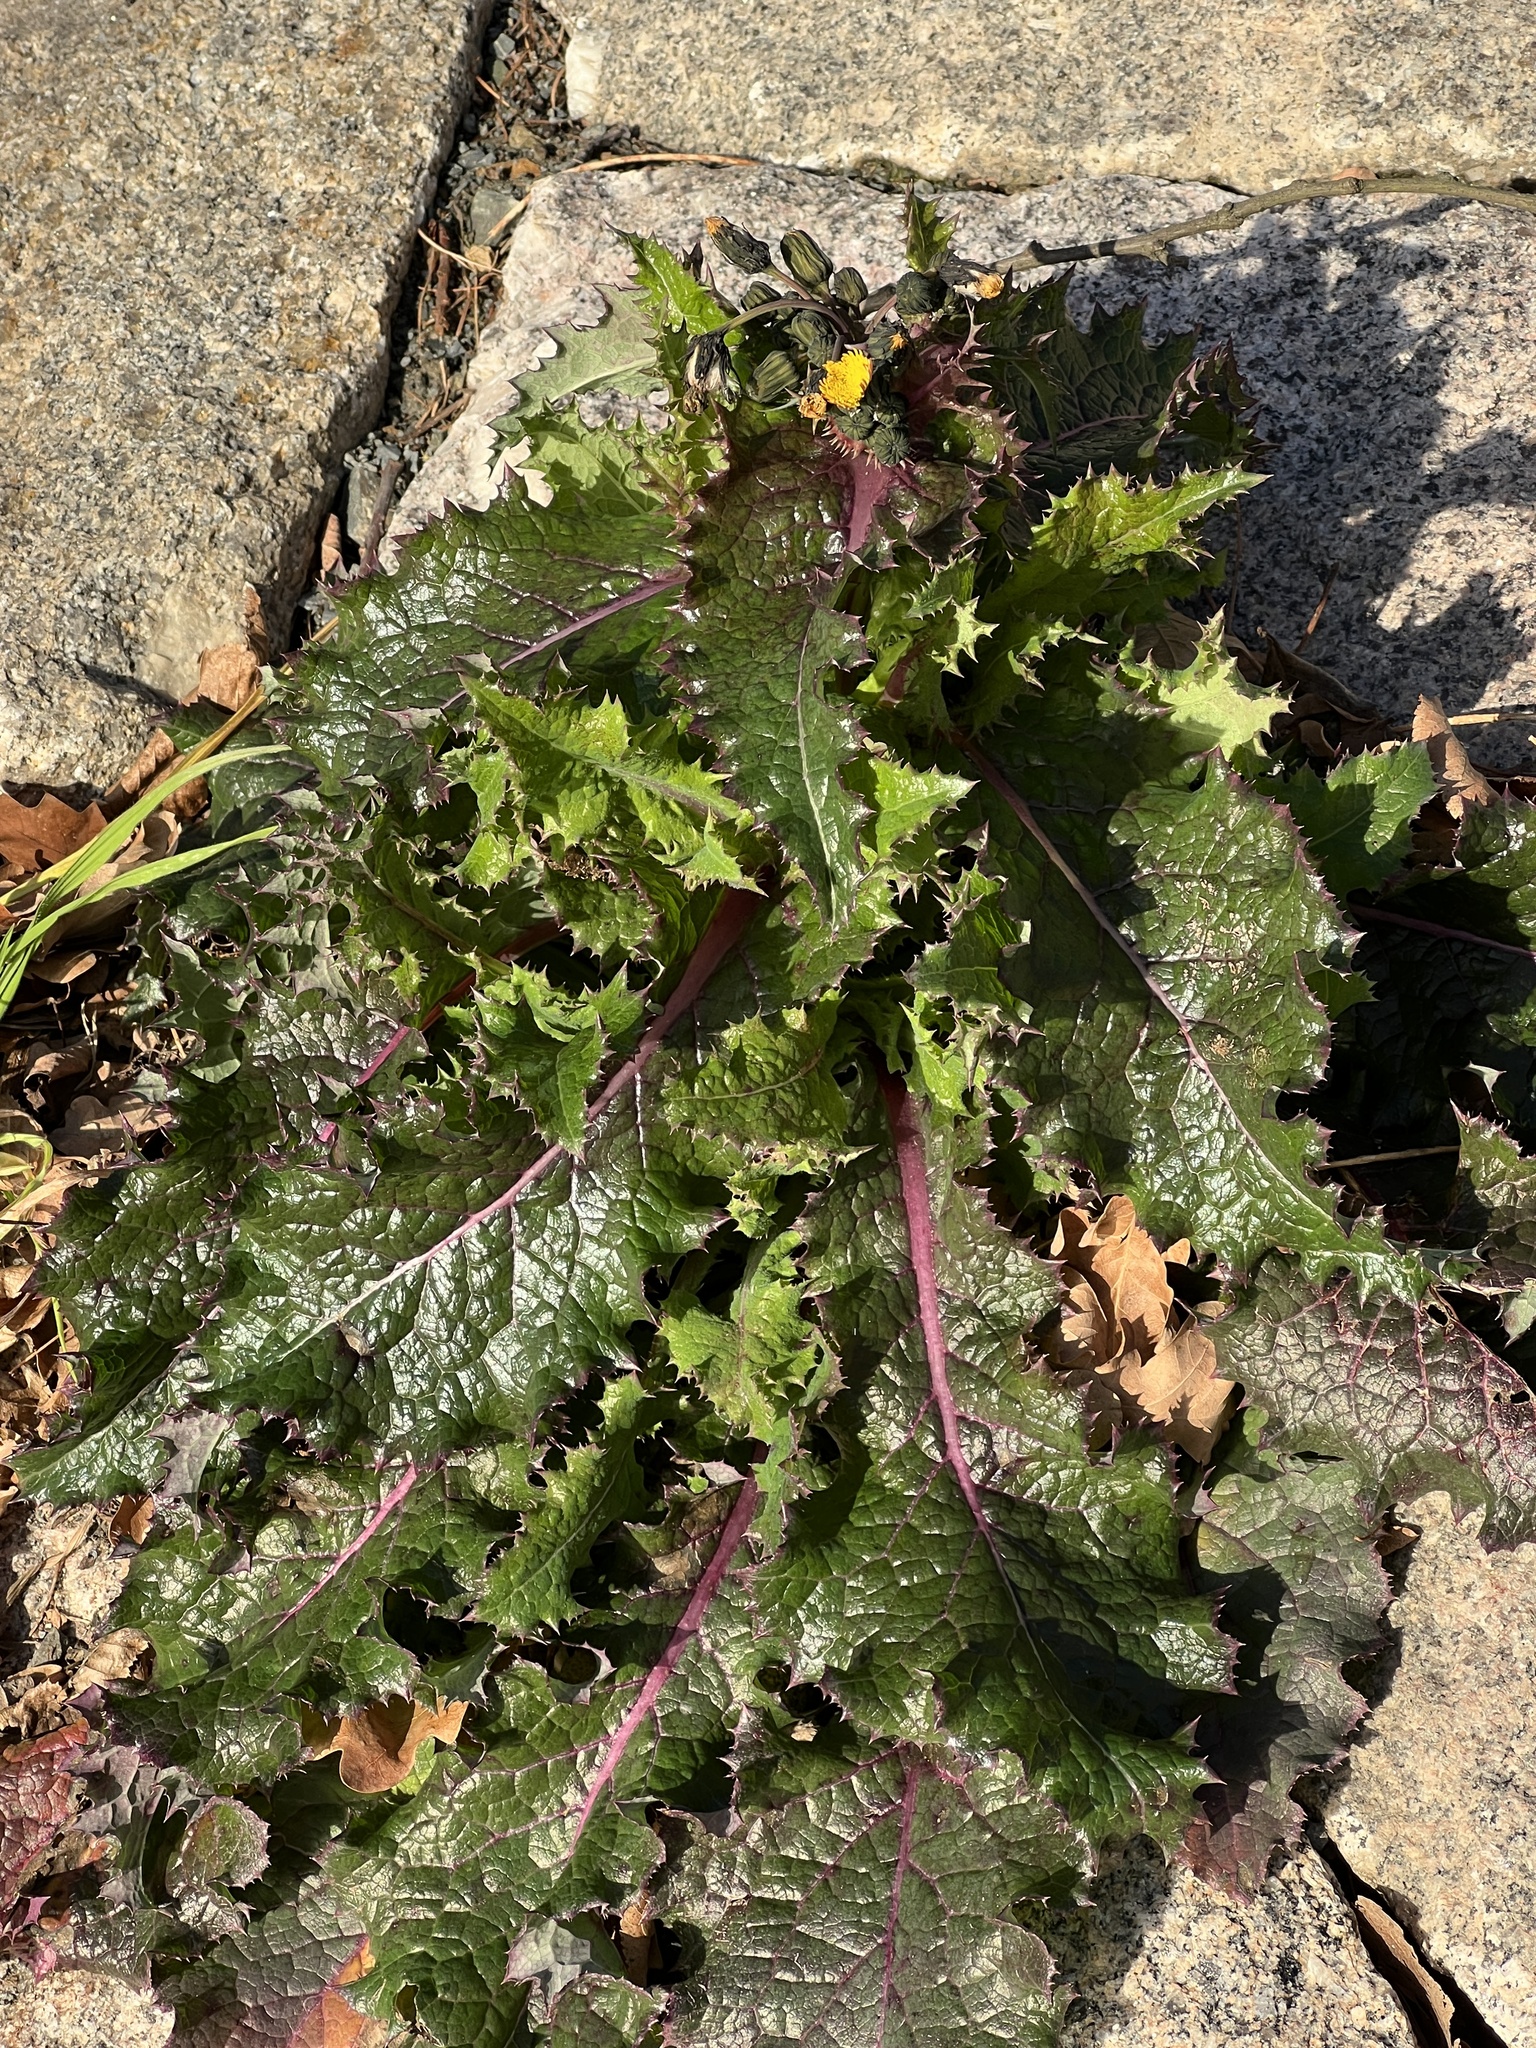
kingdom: Plantae
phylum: Tracheophyta
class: Magnoliopsida
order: Asterales
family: Asteraceae
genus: Sonchus
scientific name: Sonchus asper
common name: Prickly sow-thistle
